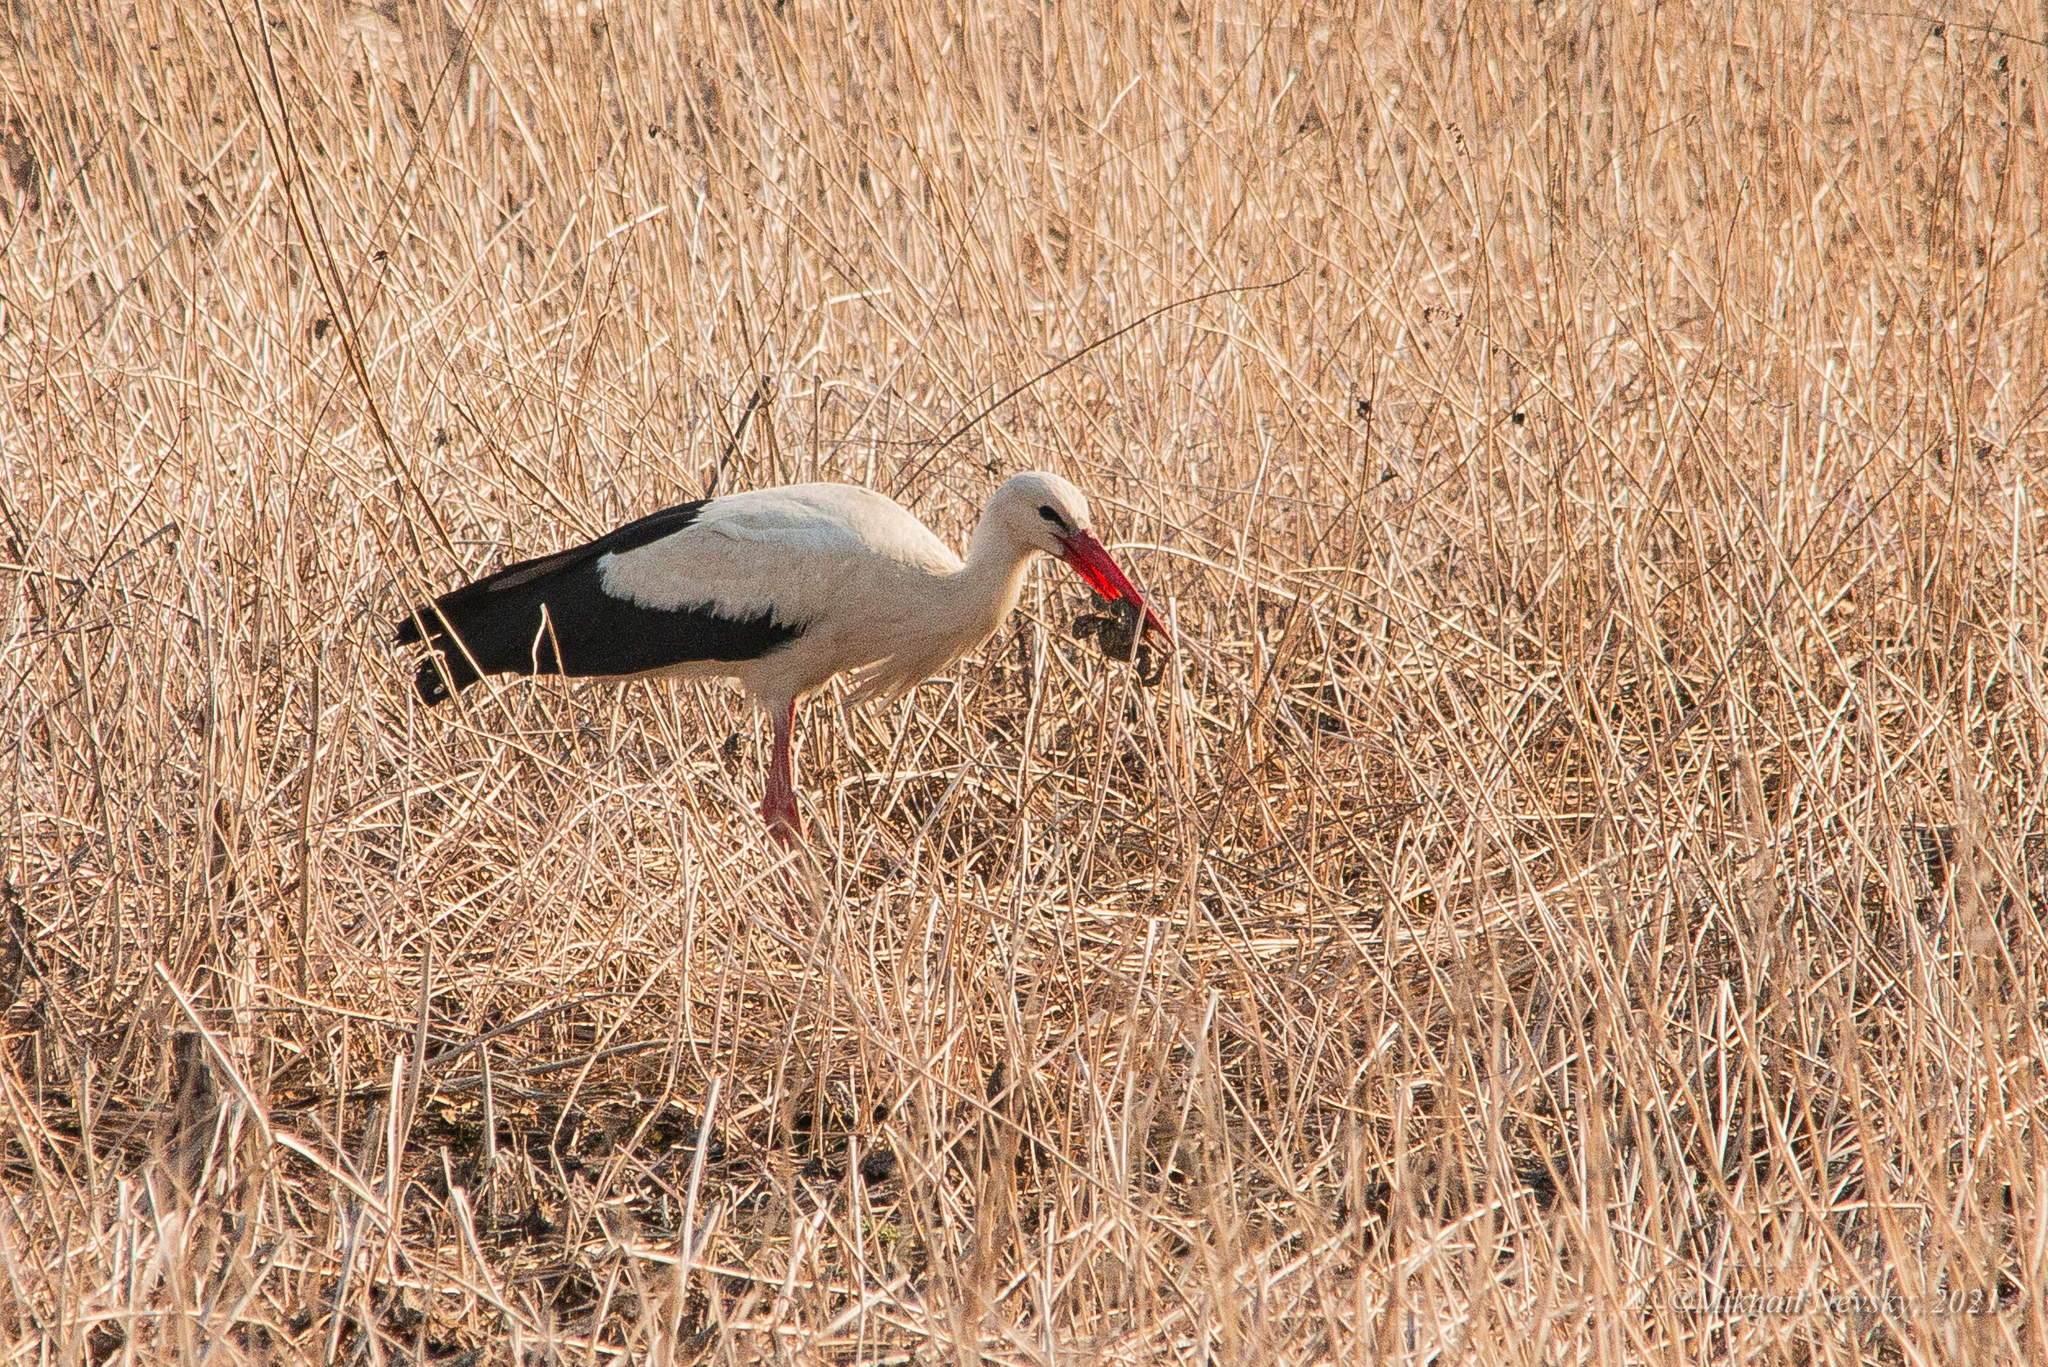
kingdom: Animalia
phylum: Chordata
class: Aves
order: Ciconiiformes
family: Ciconiidae
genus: Ciconia
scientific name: Ciconia ciconia
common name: White stork
